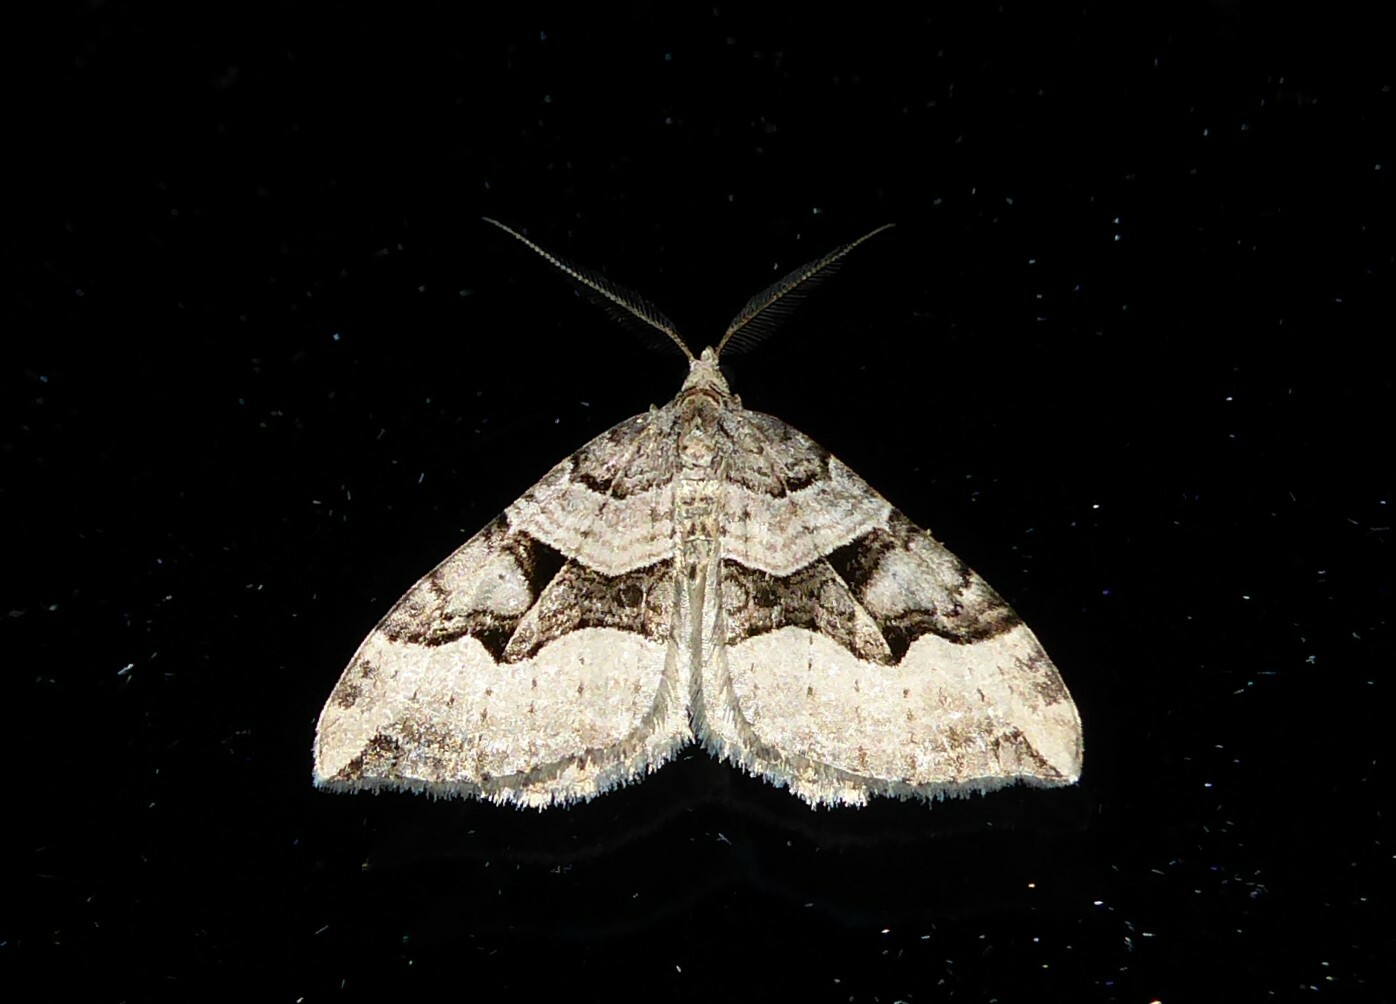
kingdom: Animalia
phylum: Arthropoda
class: Insecta
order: Lepidoptera
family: Geometridae
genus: Xanthorhoe
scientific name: Xanthorhoe semifissata
